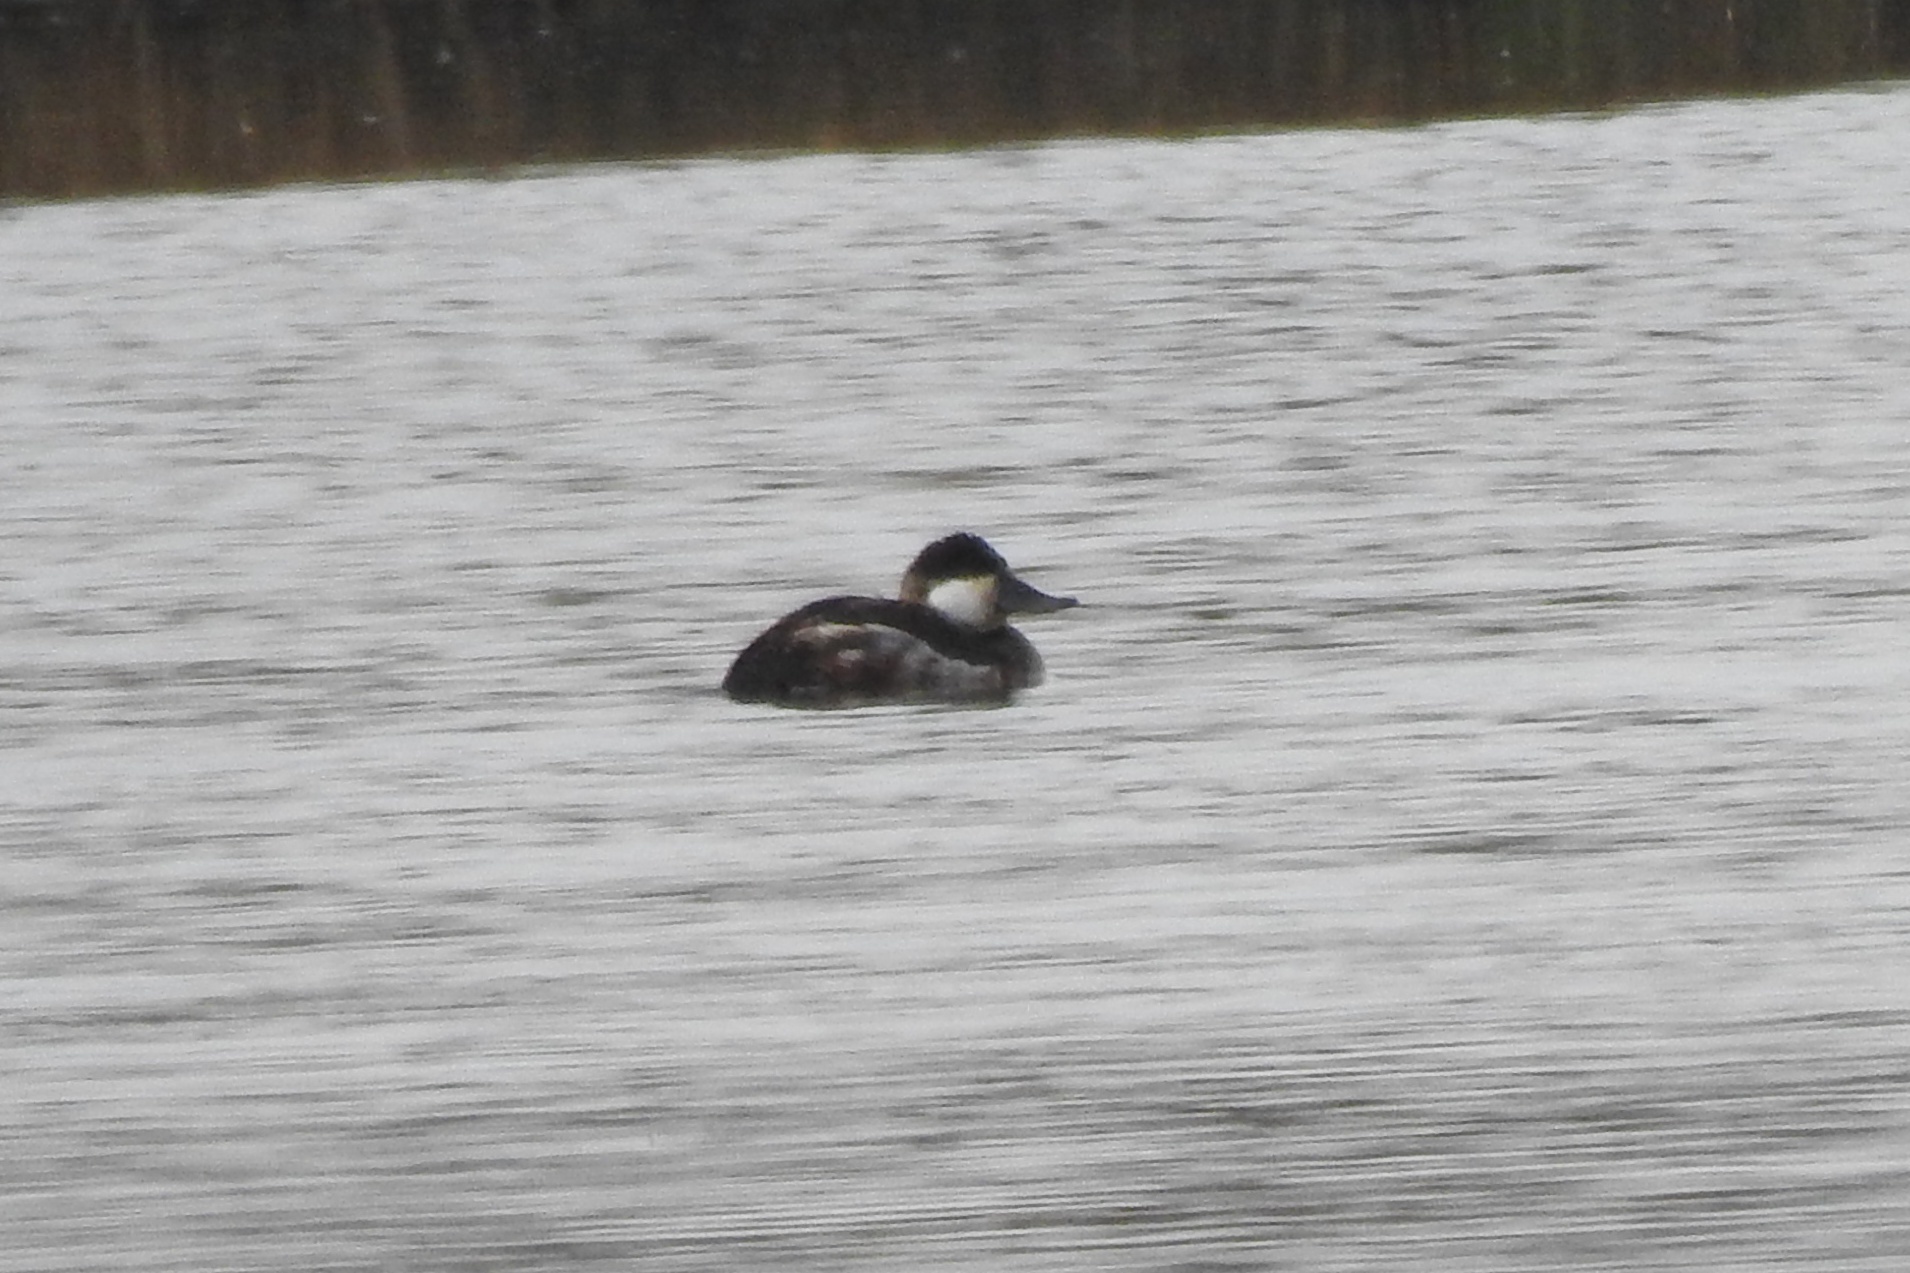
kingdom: Animalia
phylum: Chordata
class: Aves
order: Anseriformes
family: Anatidae
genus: Oxyura
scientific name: Oxyura jamaicensis
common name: Ruddy duck
